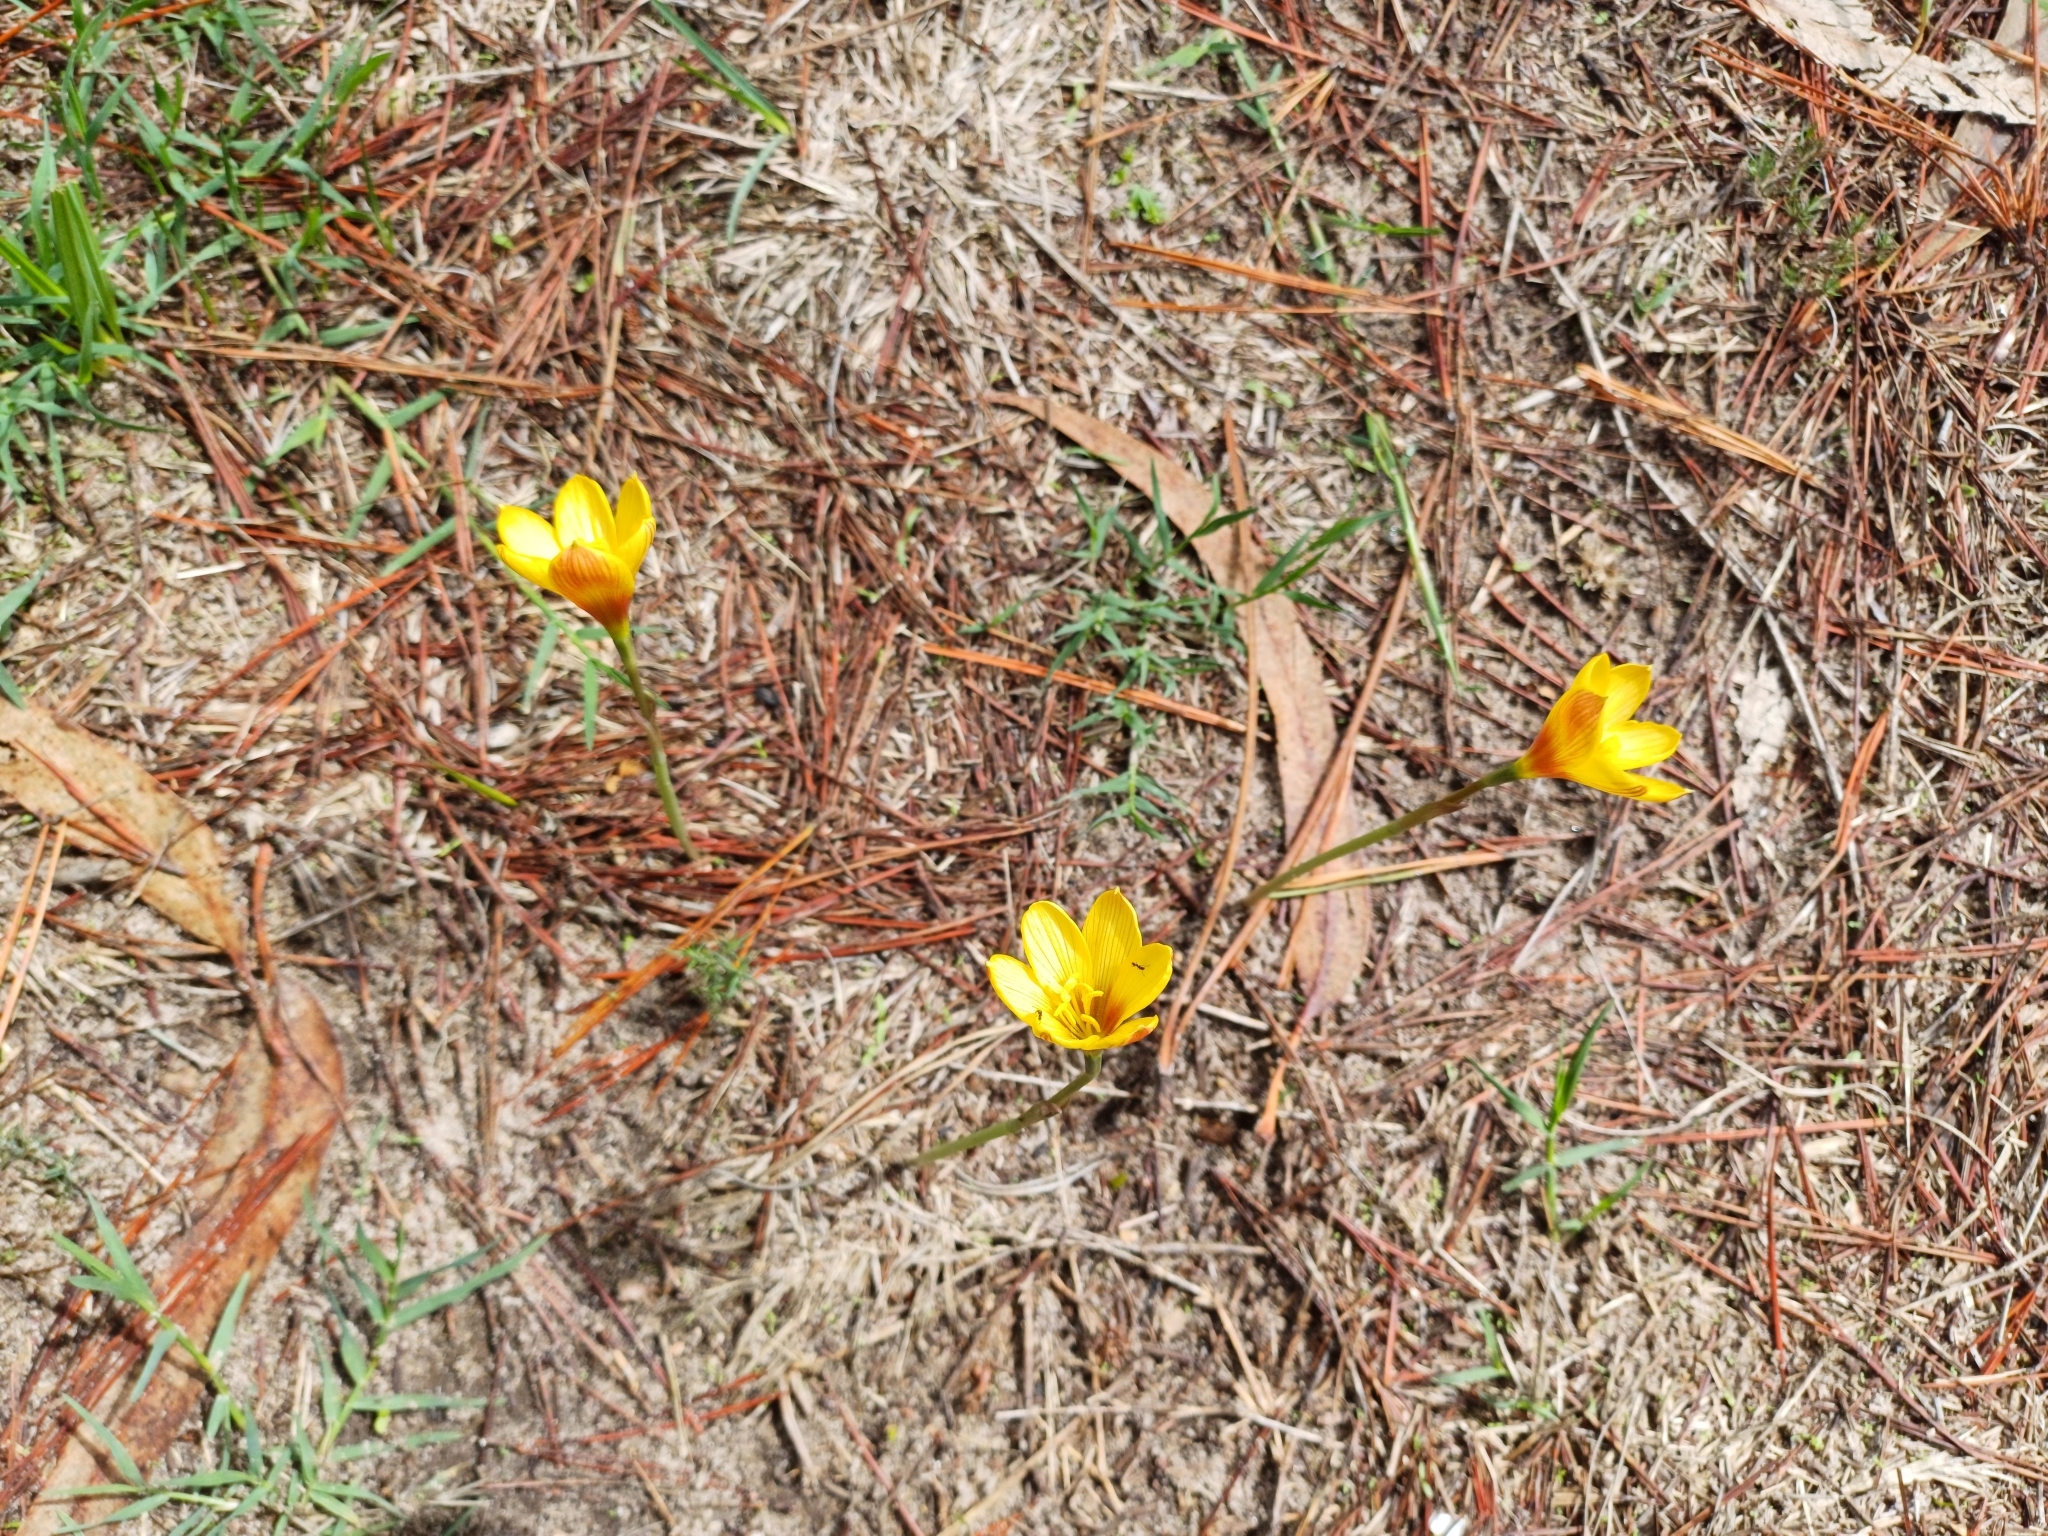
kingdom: Plantae
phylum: Tracheophyta
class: Liliopsida
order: Asparagales
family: Amaryllidaceae
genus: Zephyranthes
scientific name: Zephyranthes tubispatha
